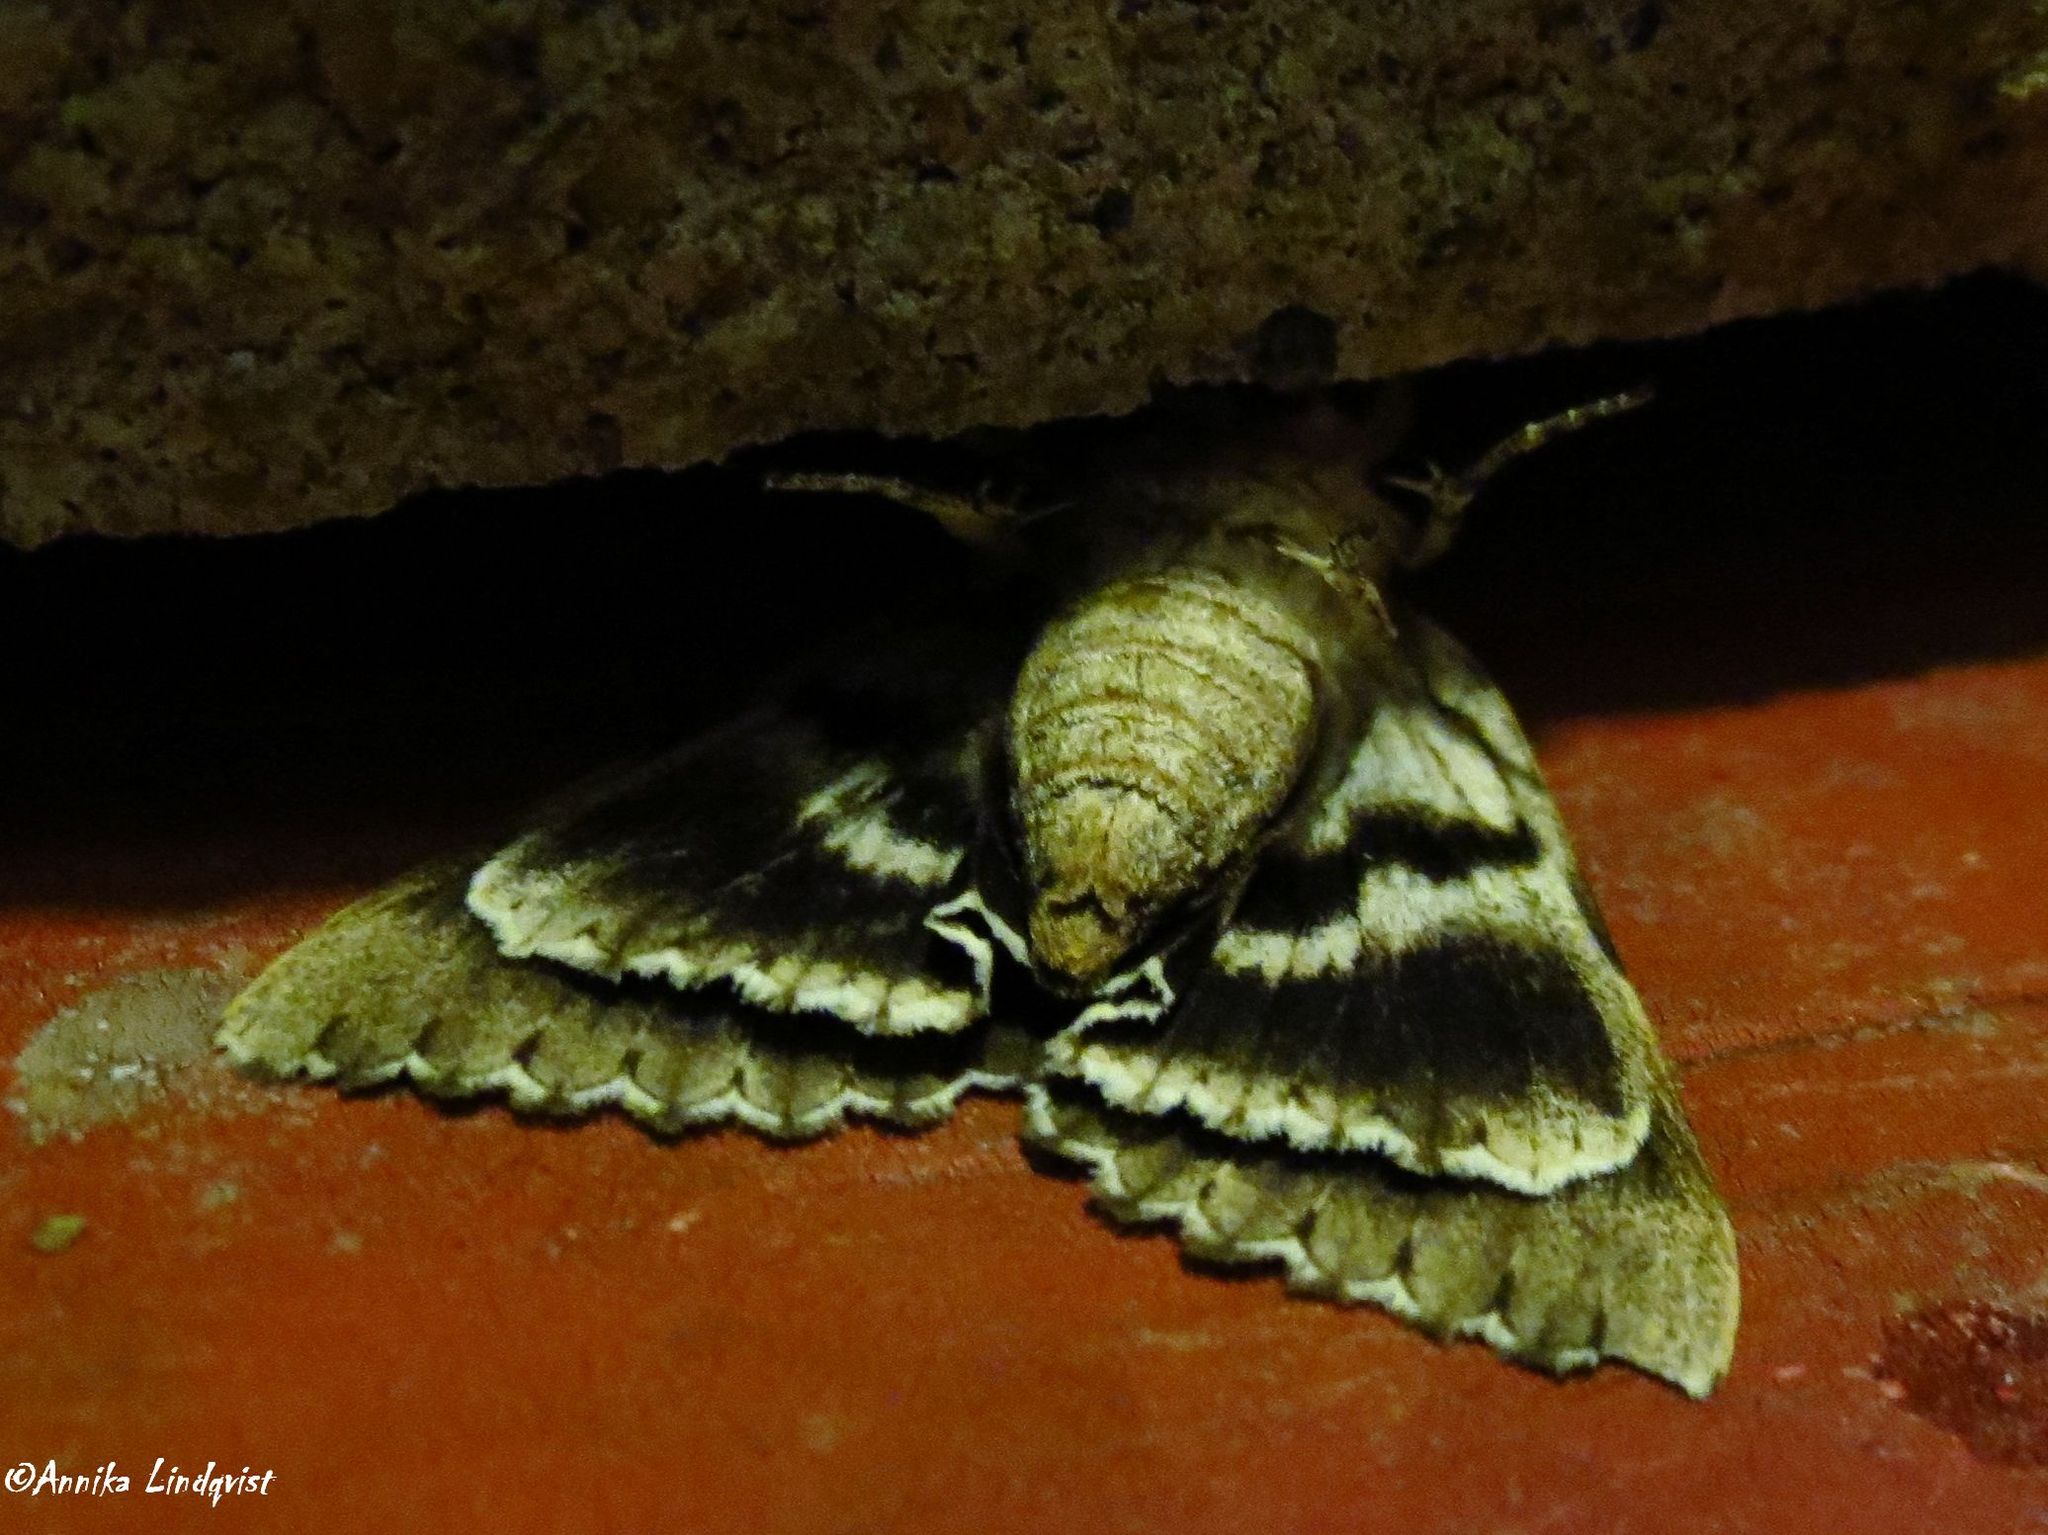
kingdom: Animalia
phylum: Arthropoda
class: Insecta
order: Lepidoptera
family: Erebidae
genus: Catocala
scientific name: Catocala maestosa
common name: Sad underwing
